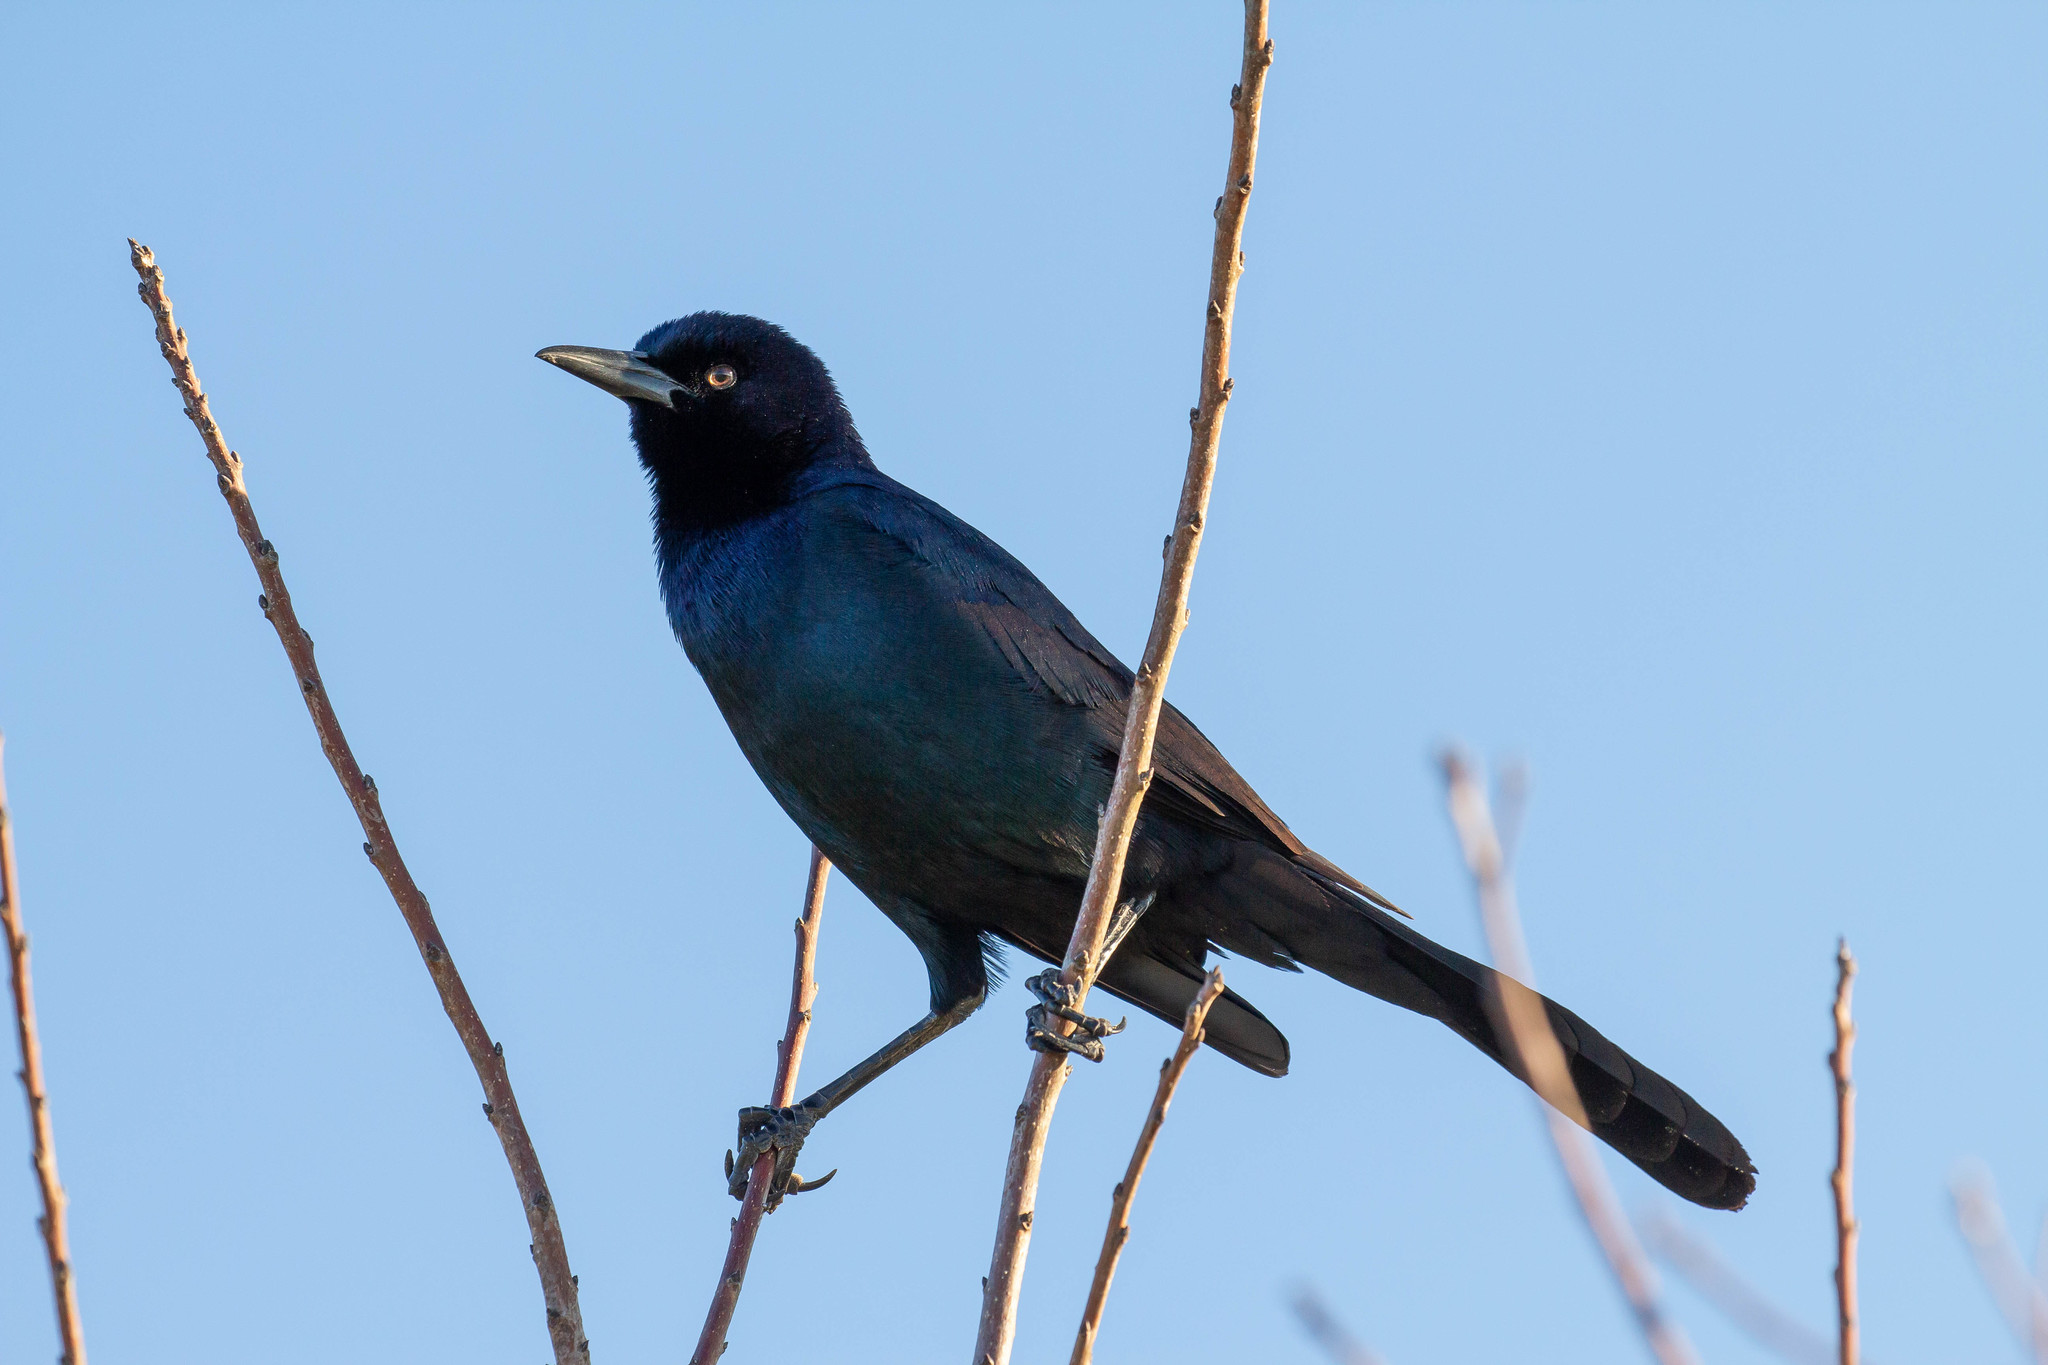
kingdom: Animalia
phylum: Chordata
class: Aves
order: Passeriformes
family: Icteridae
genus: Quiscalus
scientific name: Quiscalus major
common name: Boat-tailed grackle
